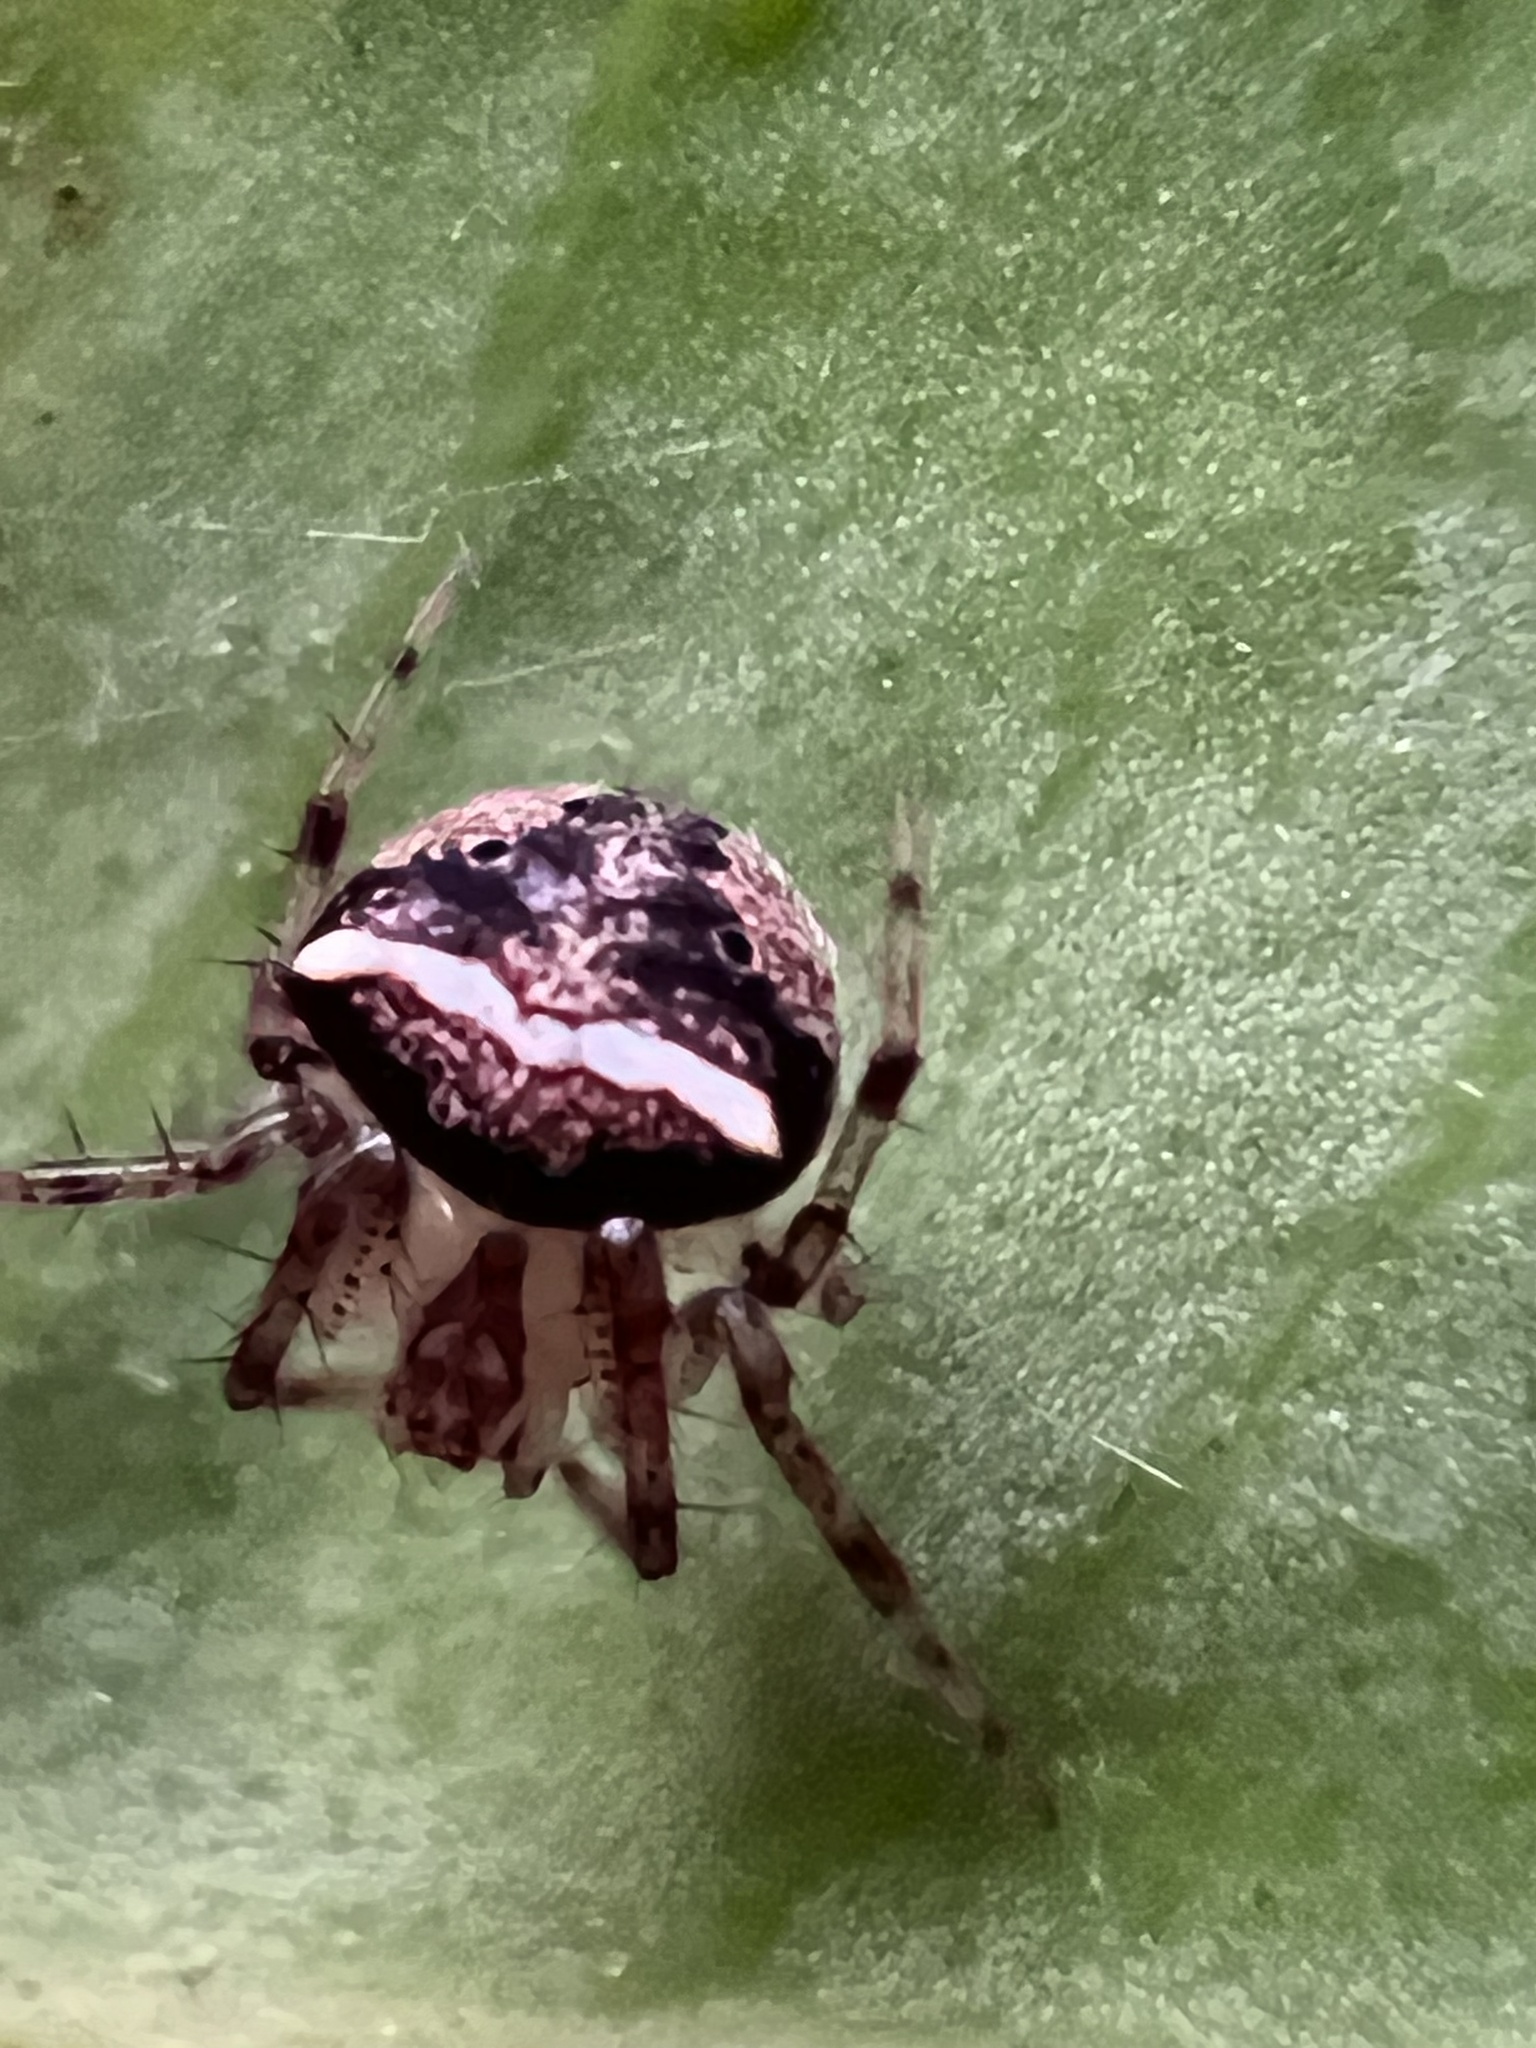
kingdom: Animalia
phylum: Arthropoda
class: Arachnida
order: Araneae
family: Araneidae
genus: Araneus
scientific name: Araneus miniatus
